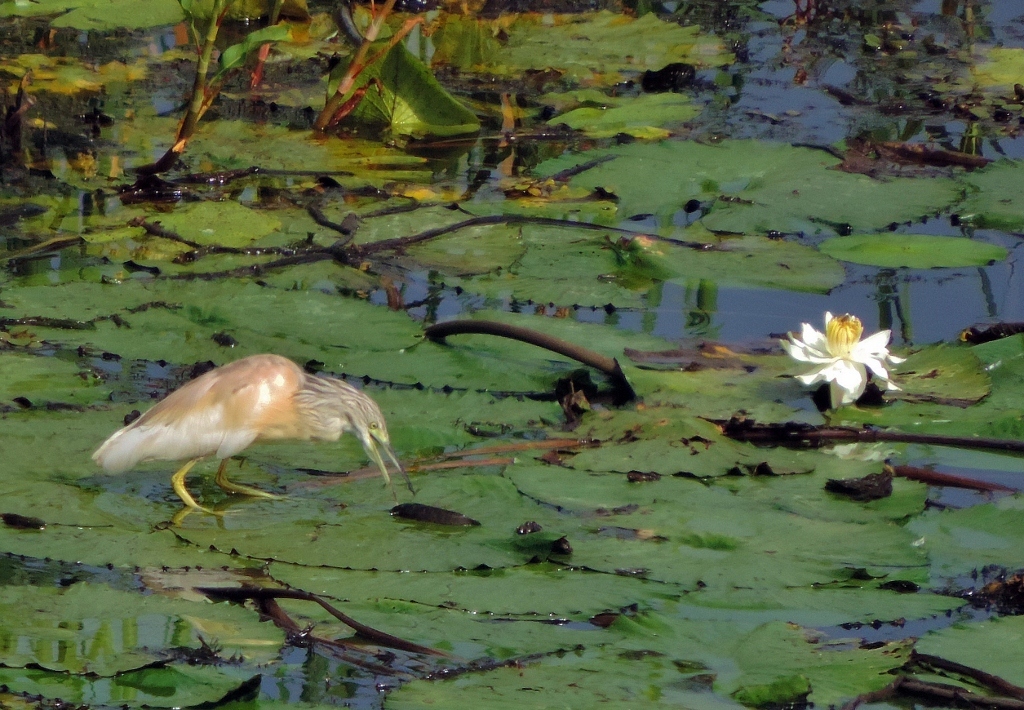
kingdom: Animalia
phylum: Chordata
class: Aves
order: Pelecaniformes
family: Ardeidae
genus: Ardeola
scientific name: Ardeola ralloides
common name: Squacco heron
